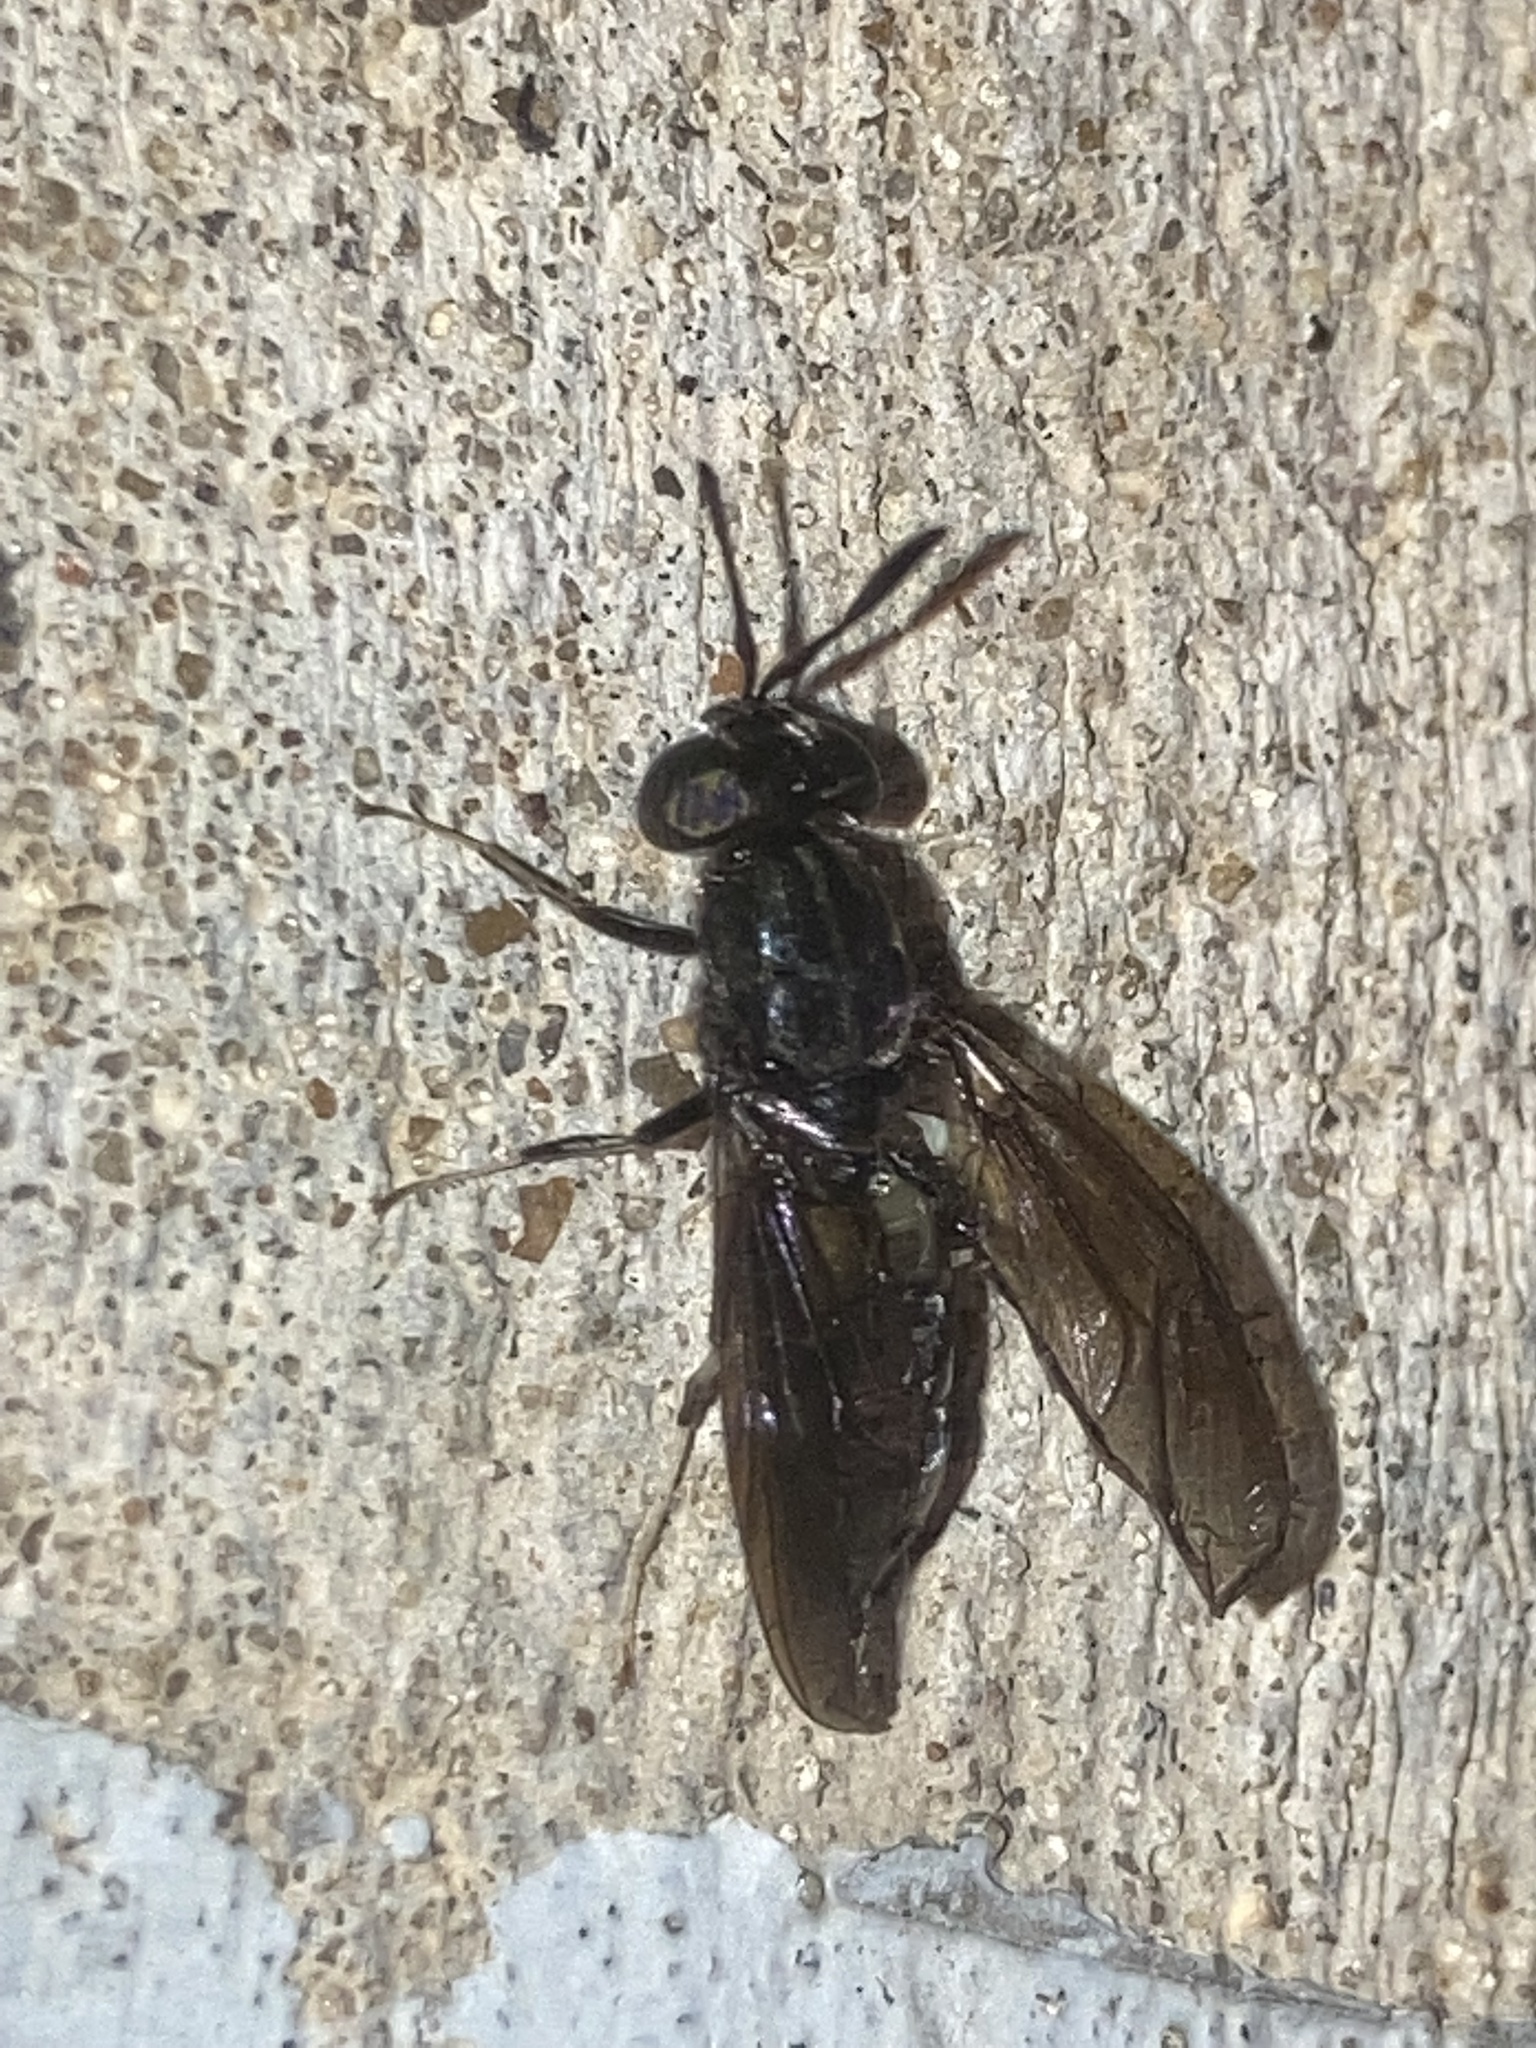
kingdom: Animalia
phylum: Arthropoda
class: Insecta
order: Diptera
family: Stratiomyidae
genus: Hermetia
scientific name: Hermetia illucens
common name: Black soldier fly
